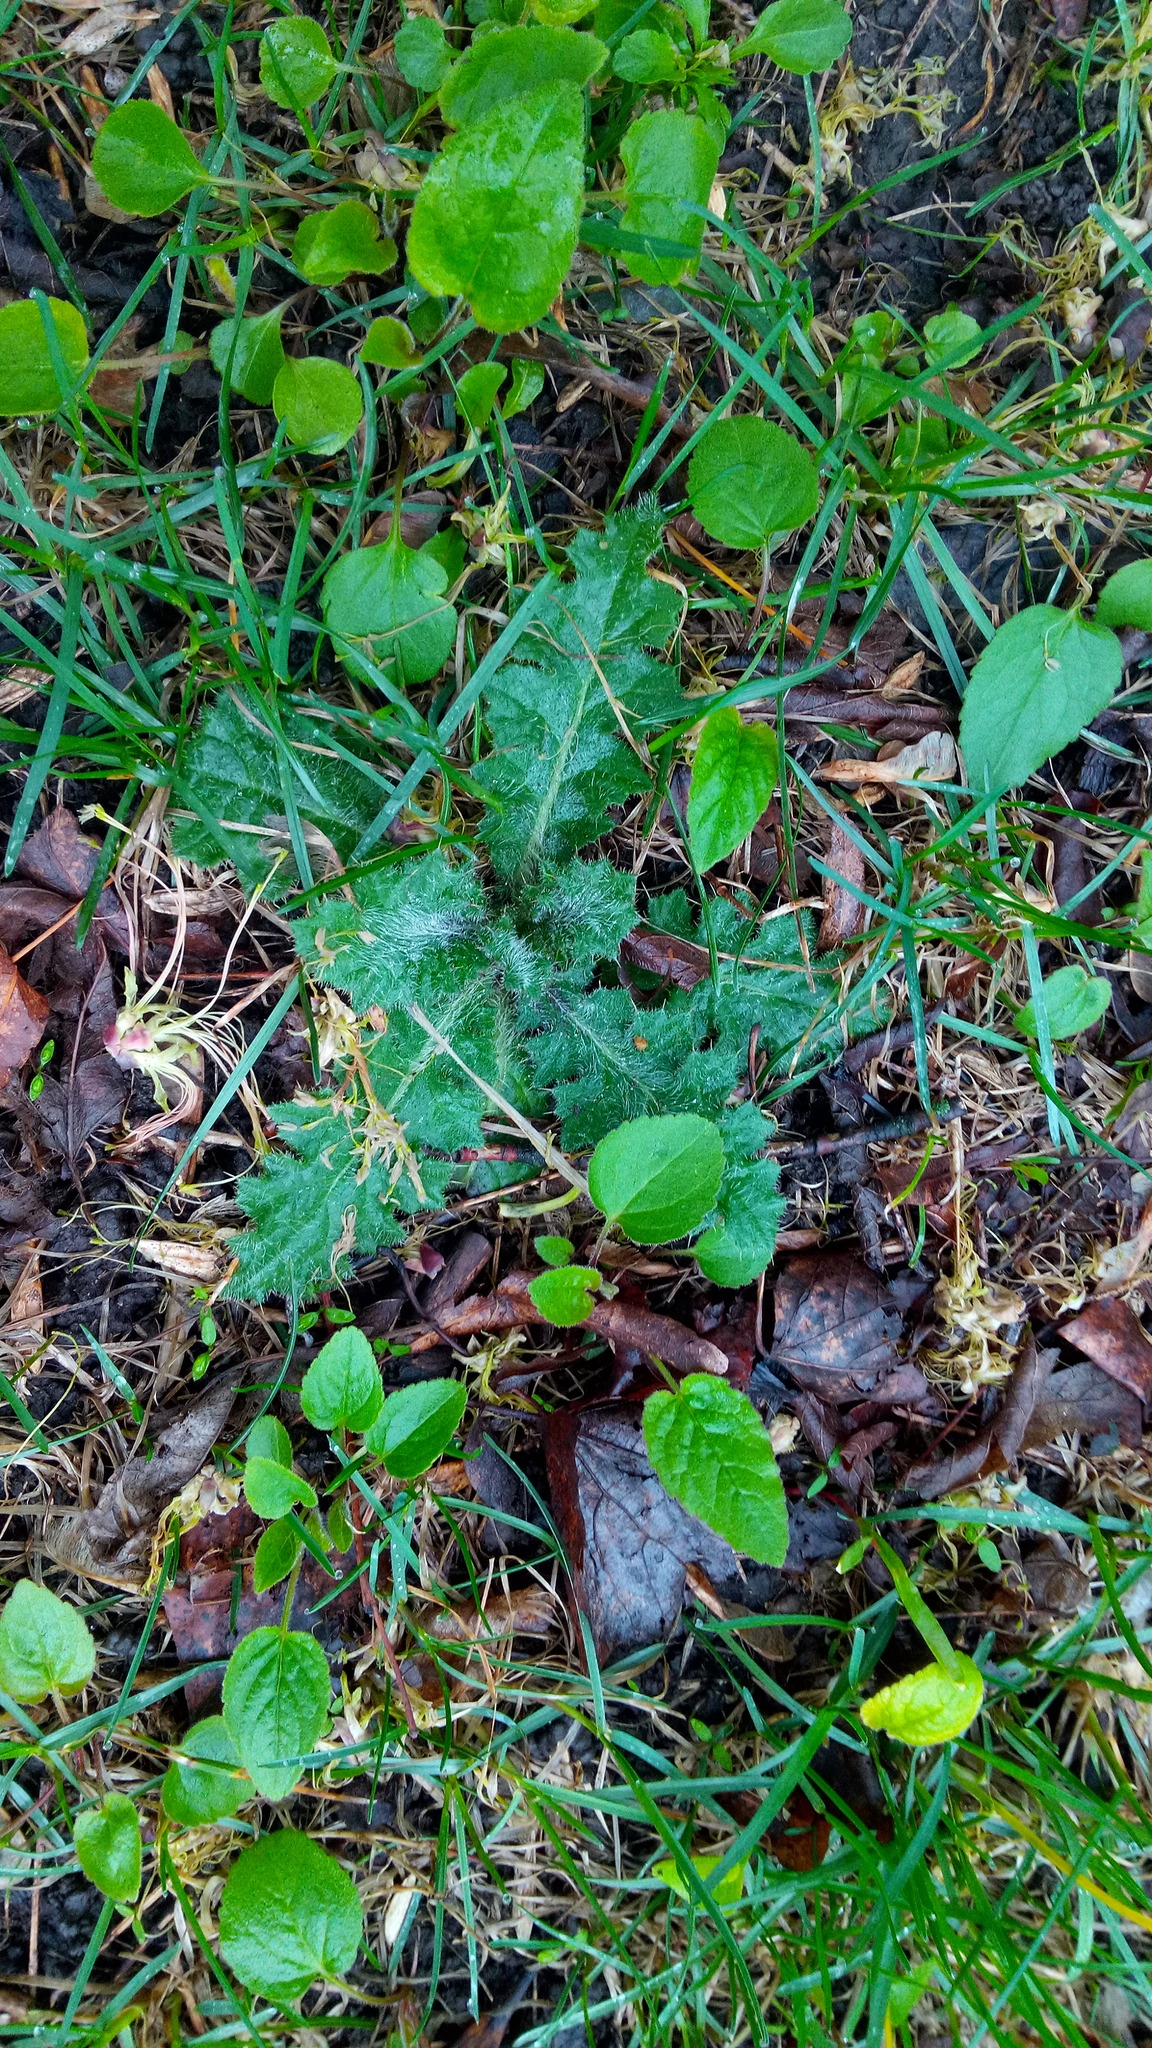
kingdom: Plantae
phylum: Tracheophyta
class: Magnoliopsida
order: Asterales
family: Asteraceae
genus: Cirsium
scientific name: Cirsium vulgare
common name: Bull thistle
